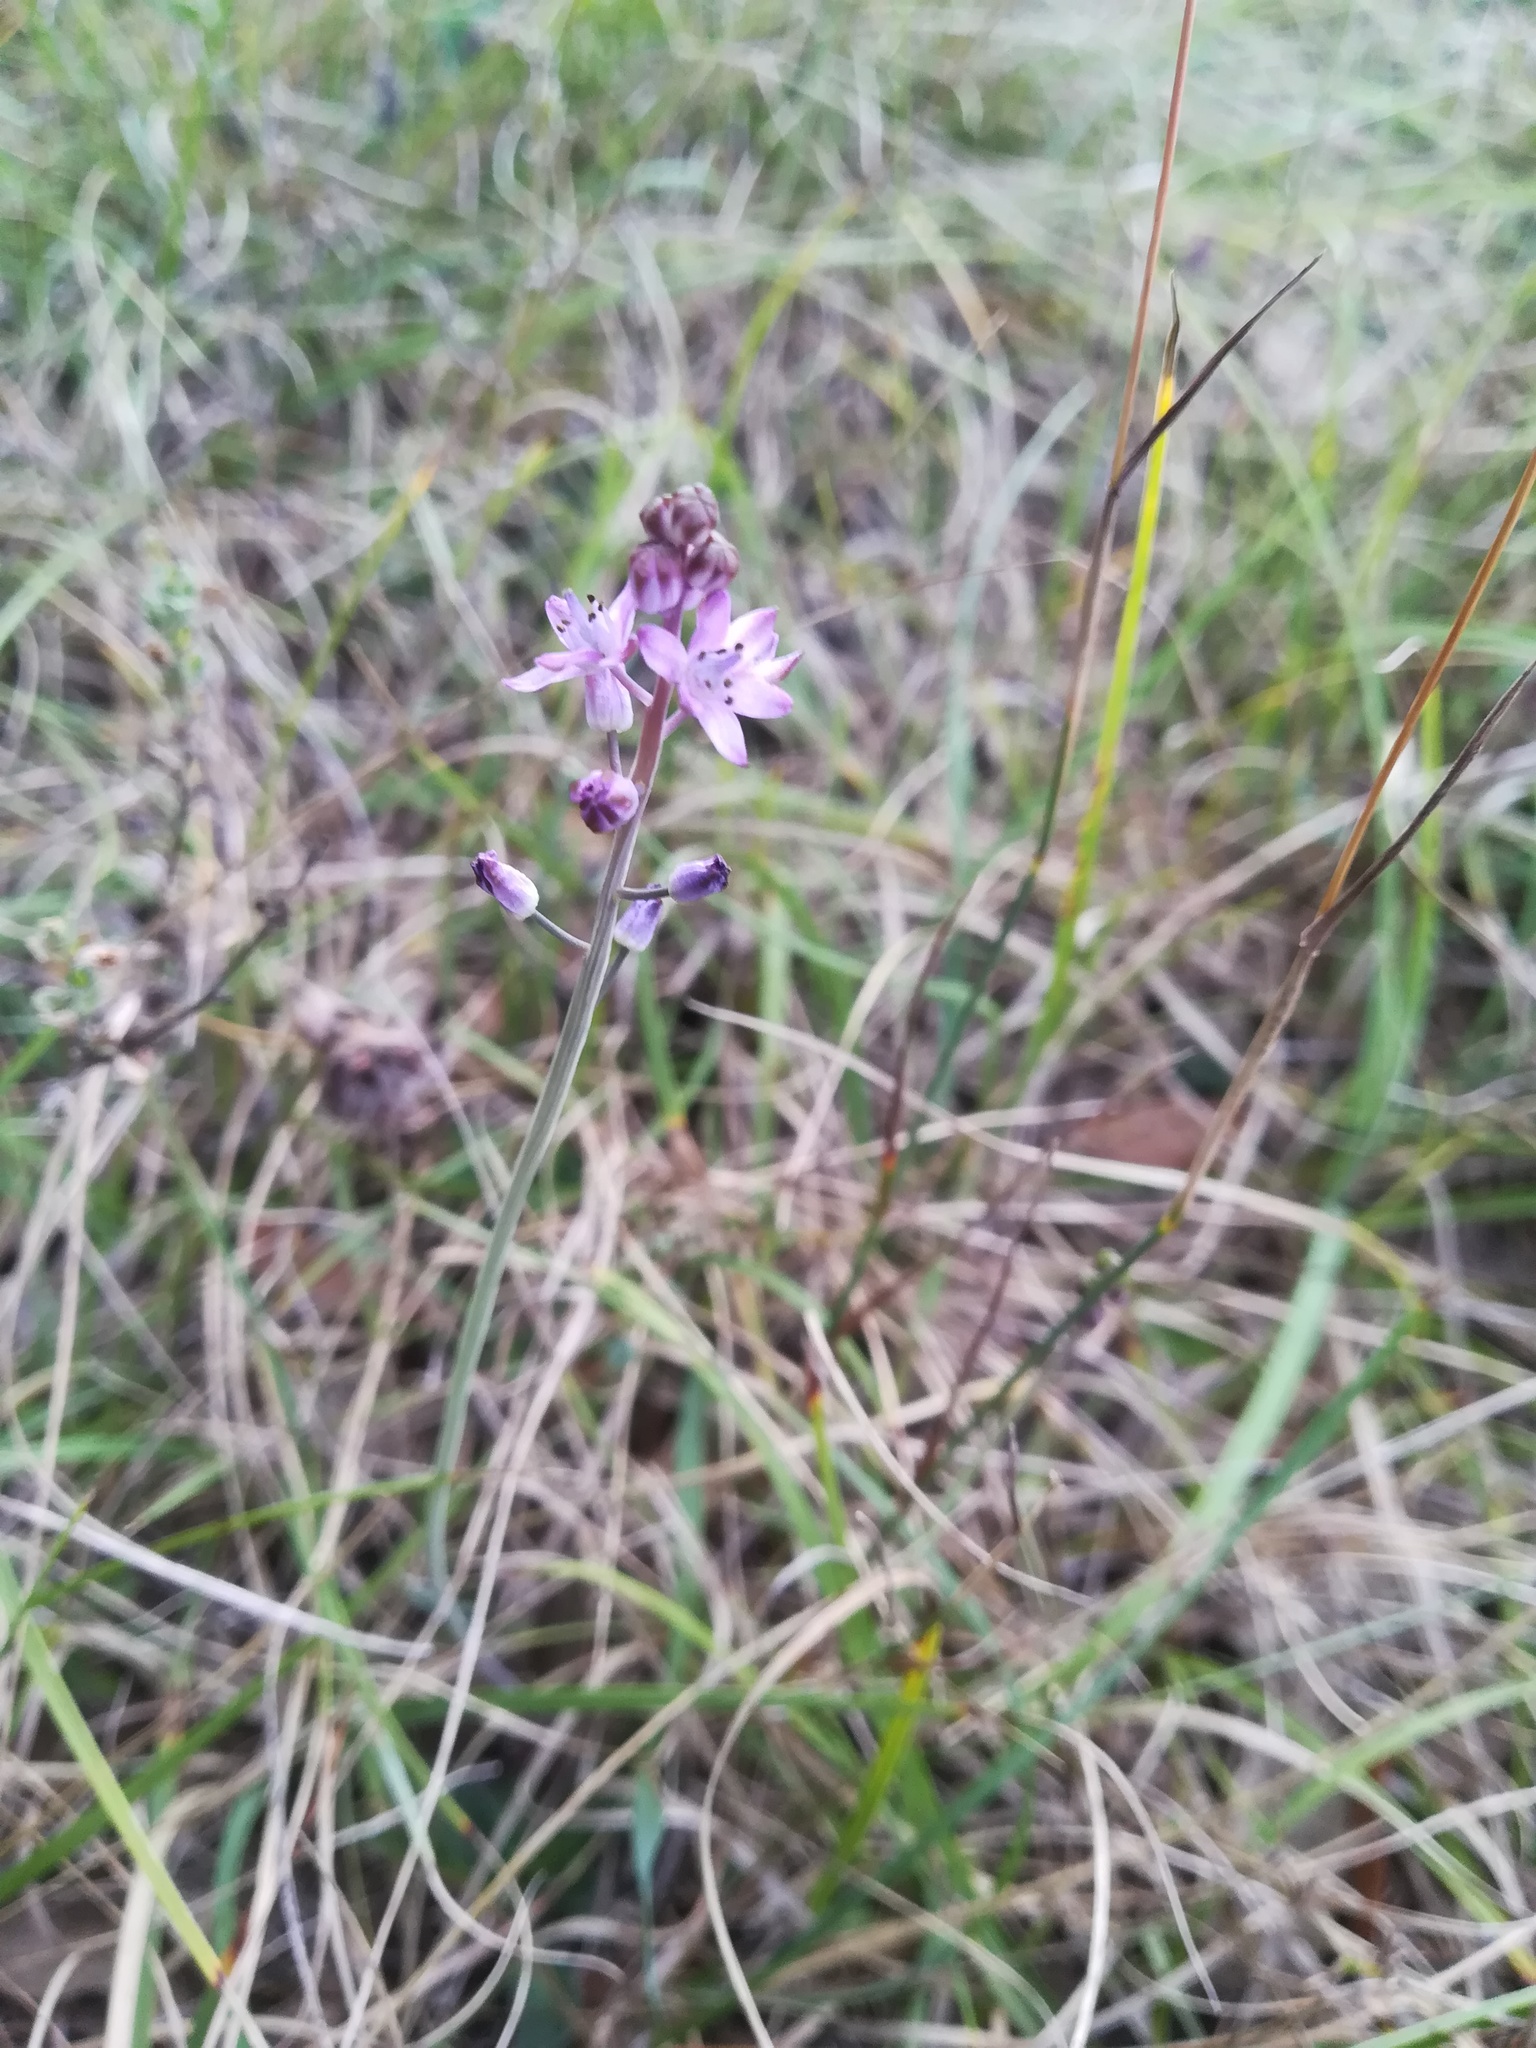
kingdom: Plantae
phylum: Tracheophyta
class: Liliopsida
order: Asparagales
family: Asparagaceae
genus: Prospero
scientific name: Prospero autumnale
